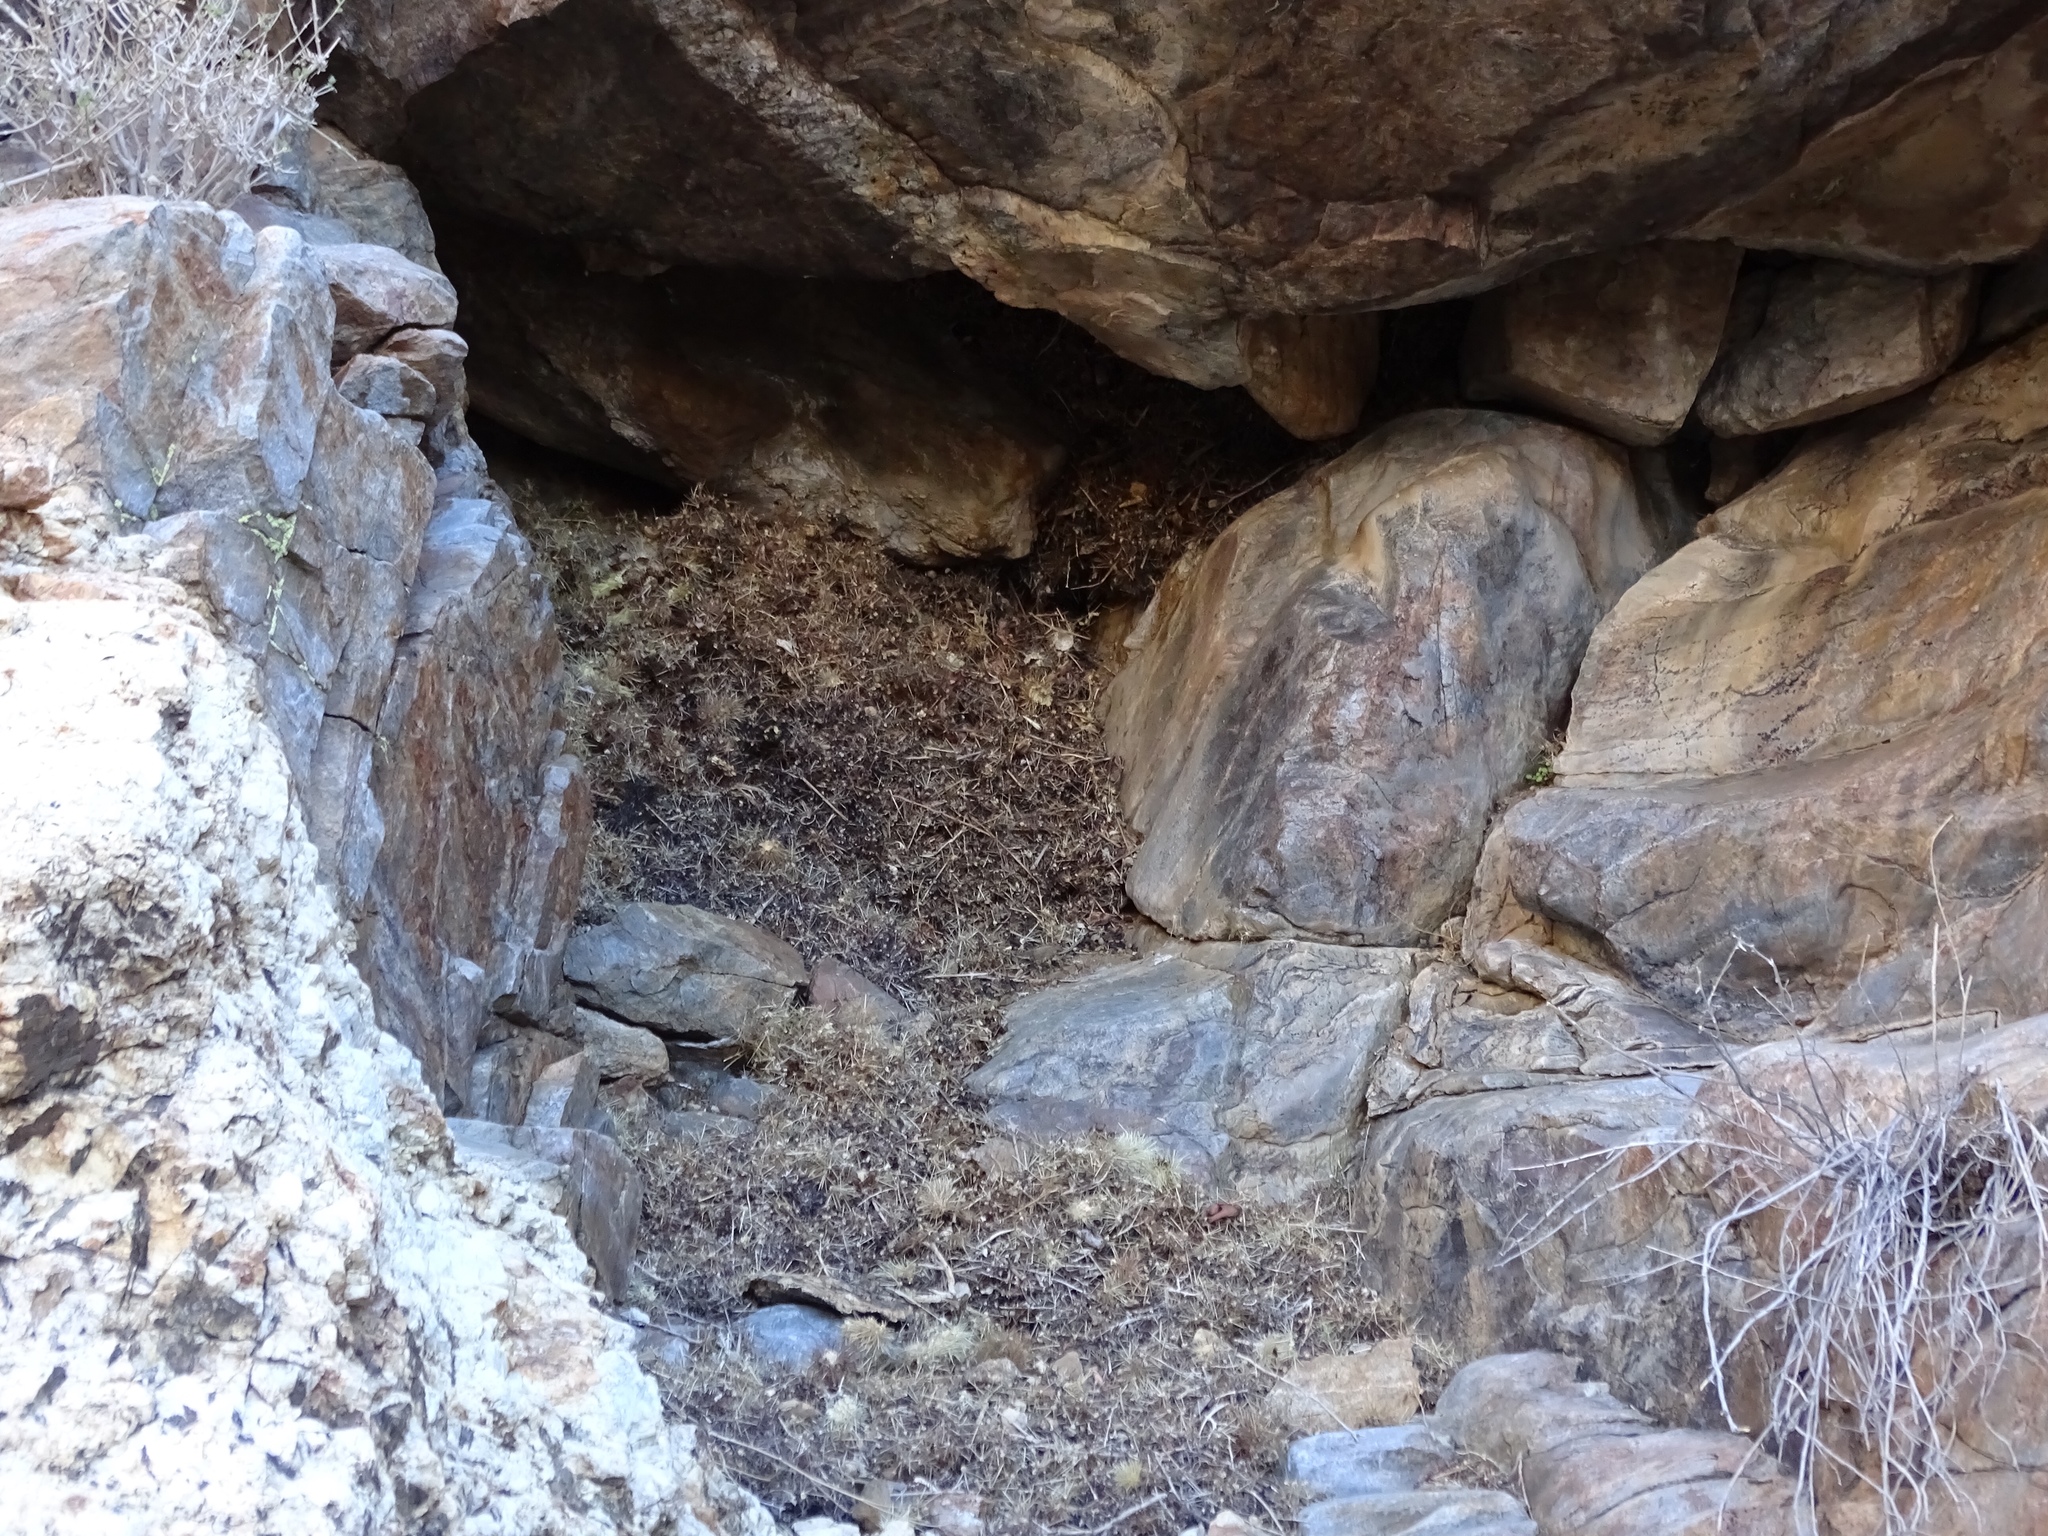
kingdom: Animalia
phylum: Chordata
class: Mammalia
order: Rodentia
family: Cricetidae
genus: Neotoma
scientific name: Neotoma bryanti
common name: Bryant's woodrat
